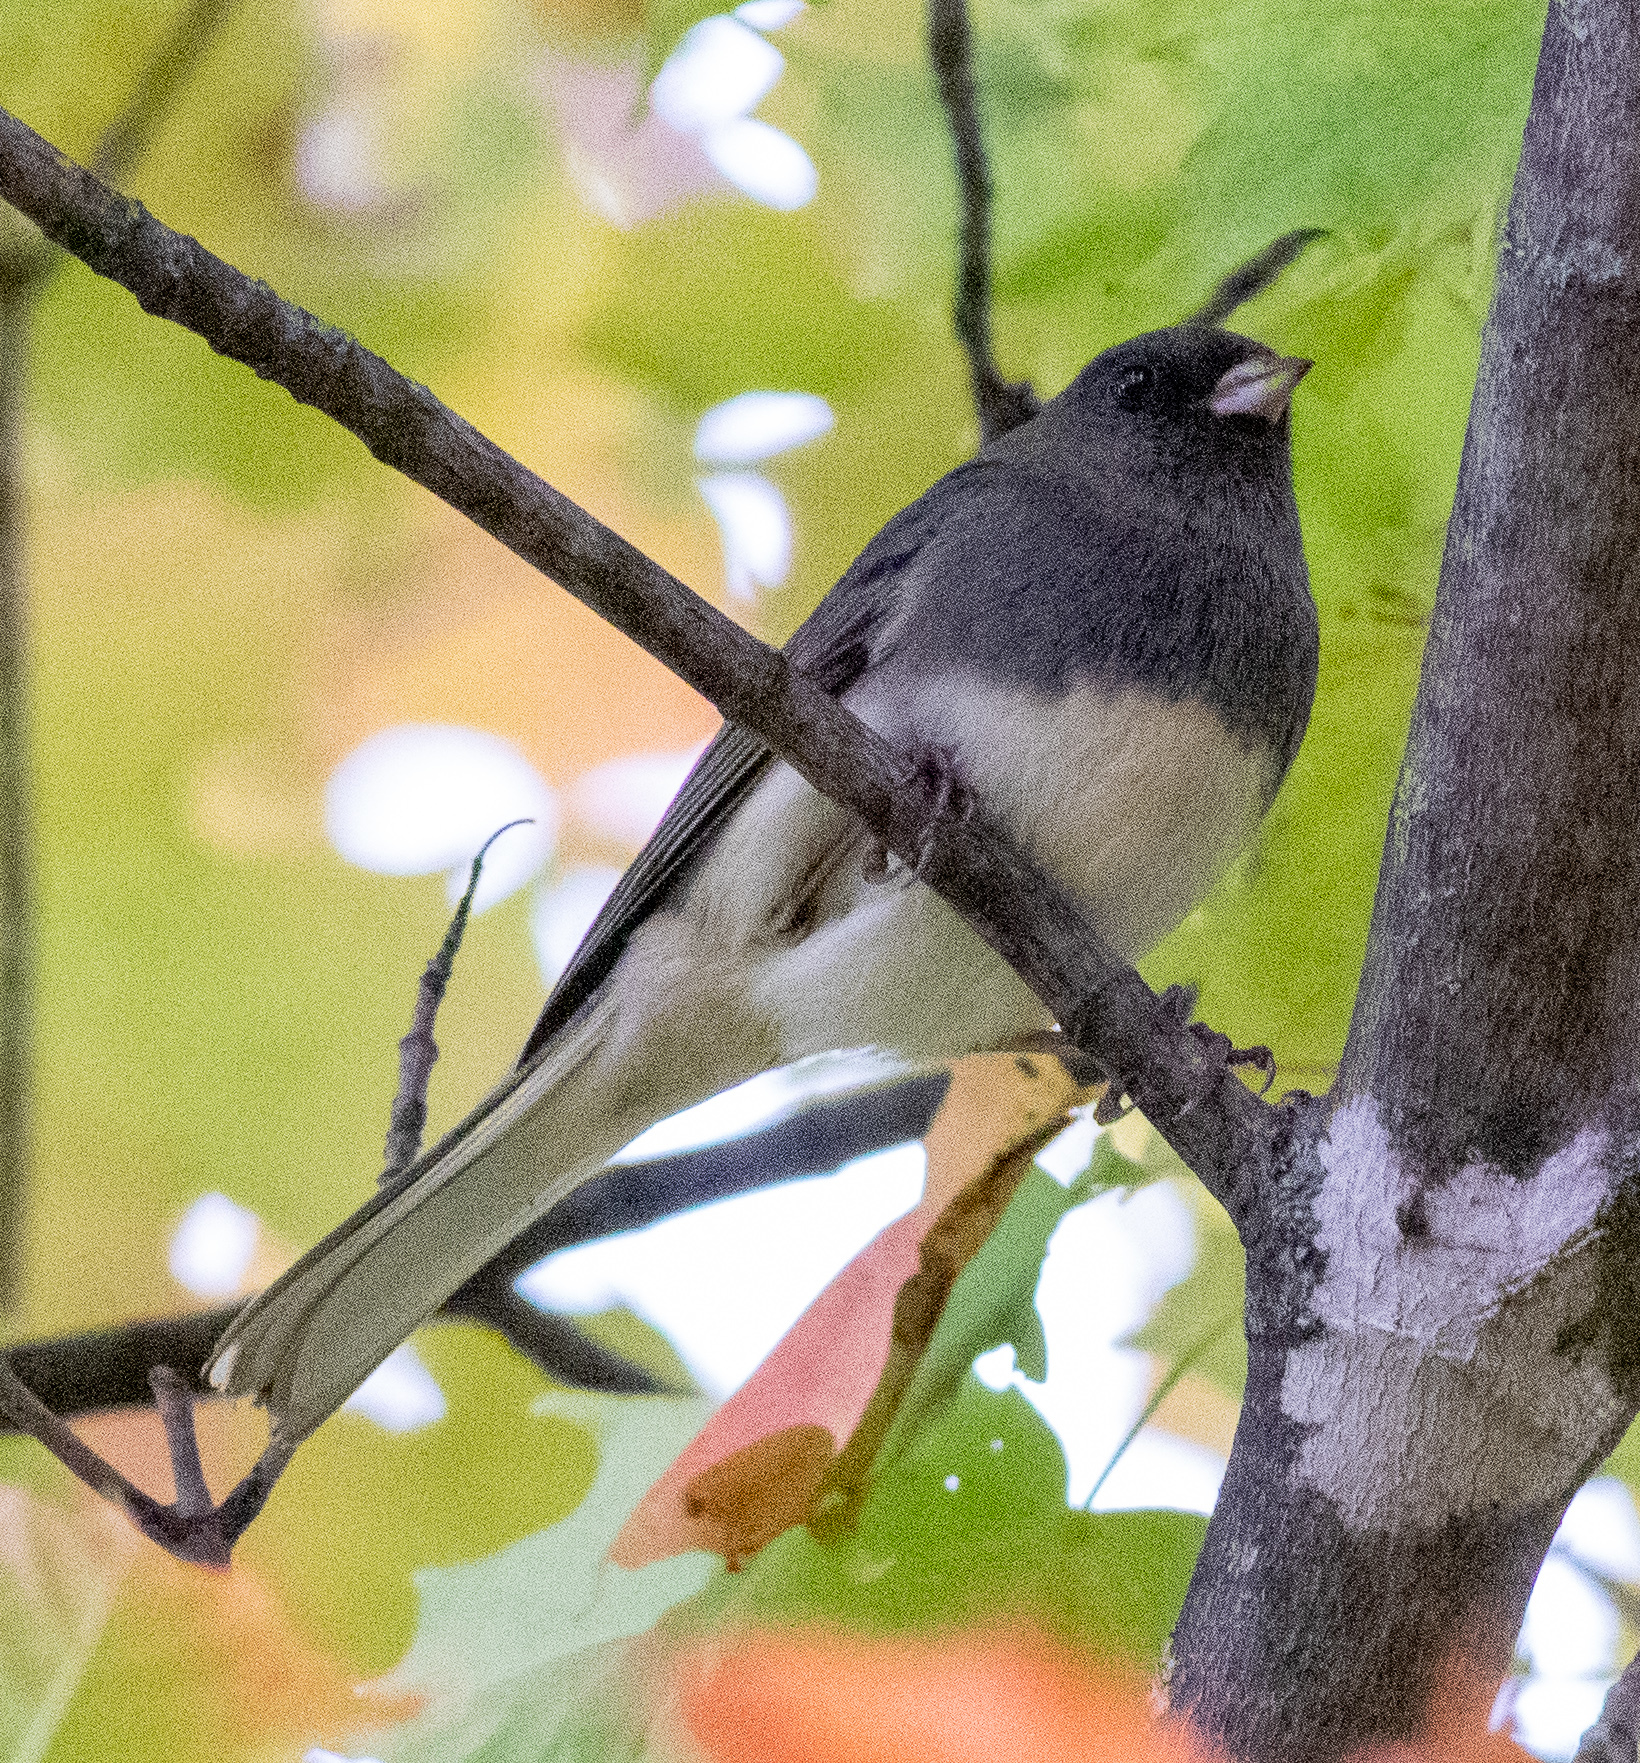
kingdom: Animalia
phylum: Chordata
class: Aves
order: Passeriformes
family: Passerellidae
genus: Junco
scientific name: Junco hyemalis
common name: Dark-eyed junco
